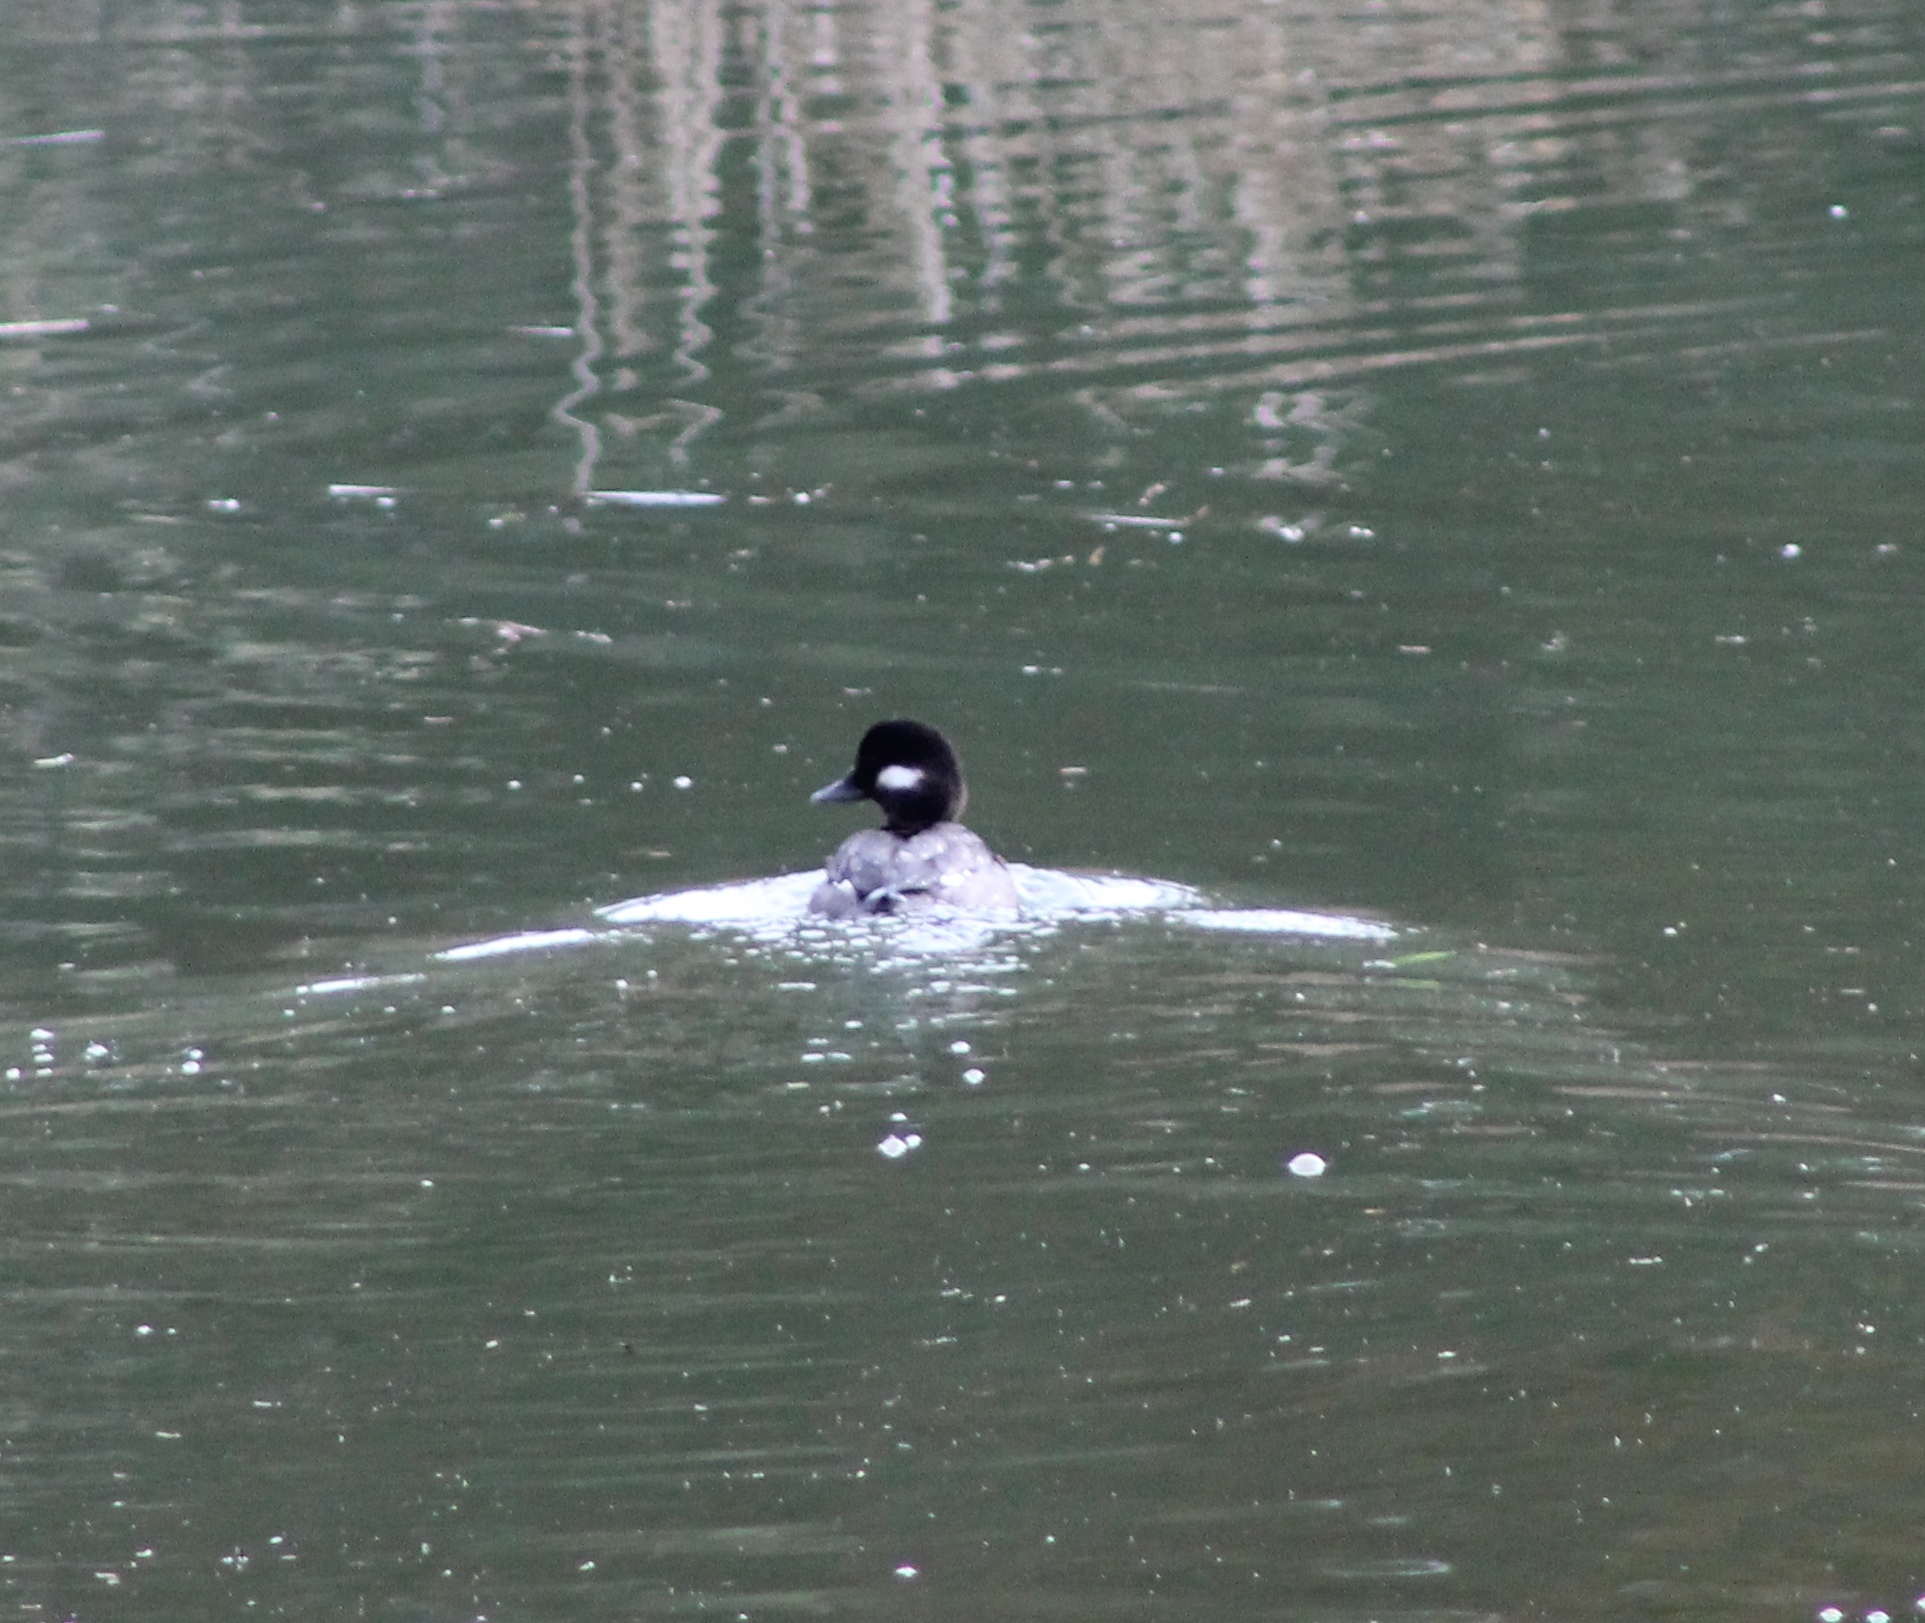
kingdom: Animalia
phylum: Chordata
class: Aves
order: Anseriformes
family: Anatidae
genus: Bucephala
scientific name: Bucephala albeola
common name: Bufflehead
